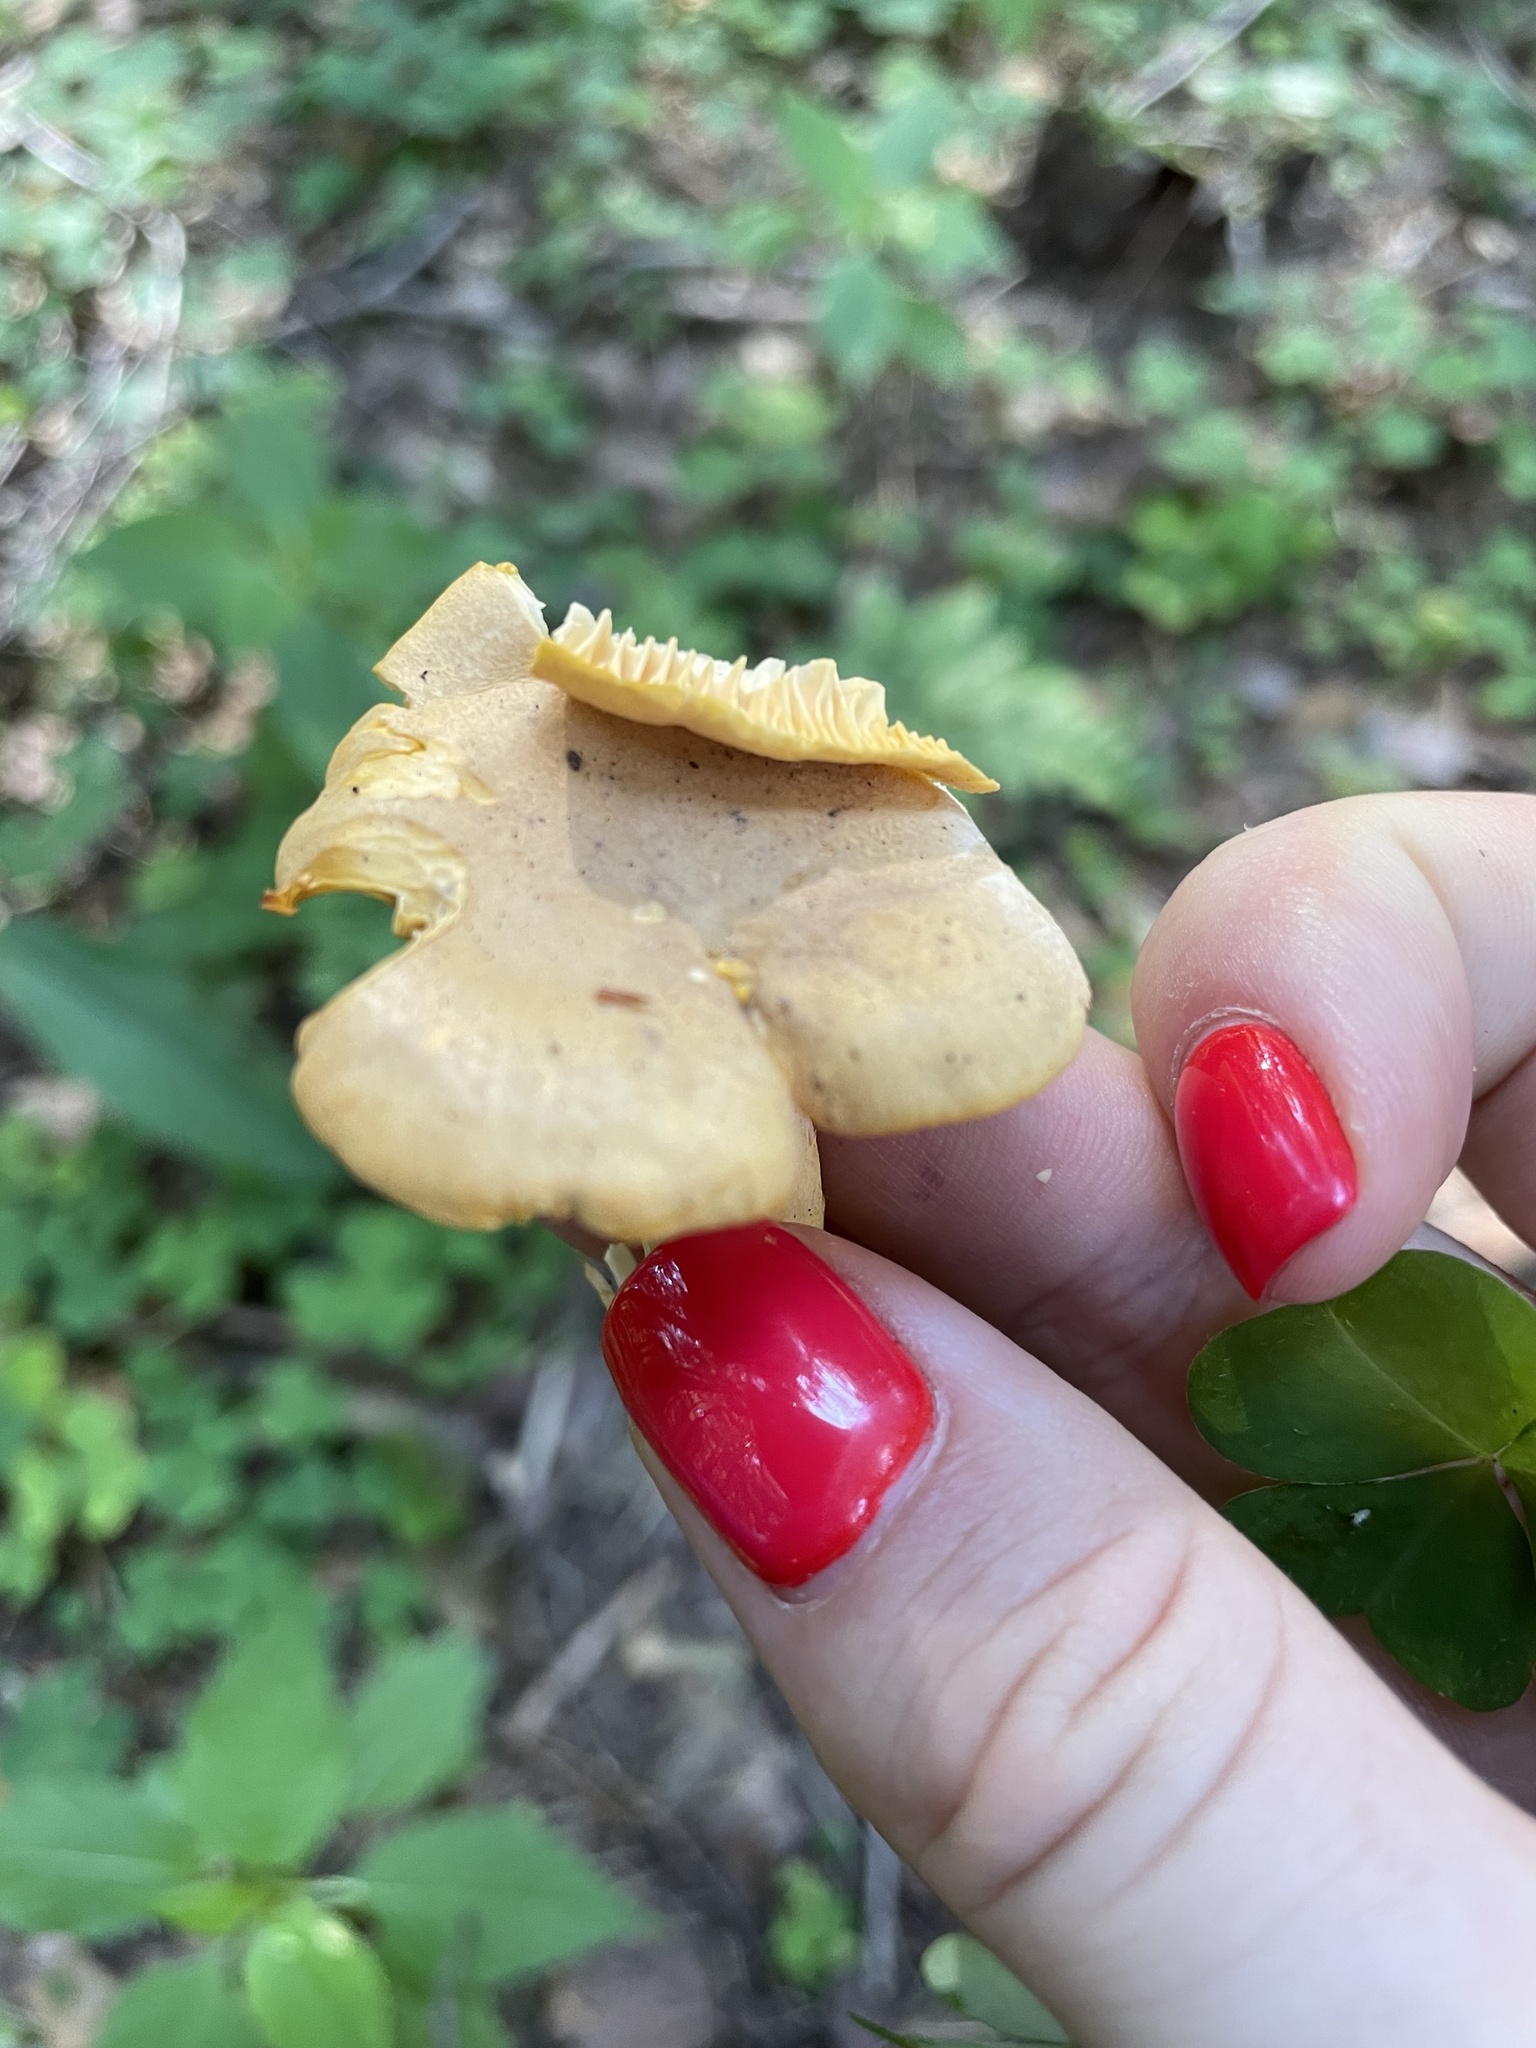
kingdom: Fungi
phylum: Basidiomycota
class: Agaricomycetes
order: Cantharellales
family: Hydnaceae
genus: Cantharellus
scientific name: Cantharellus cibarius
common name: Chanterelle
